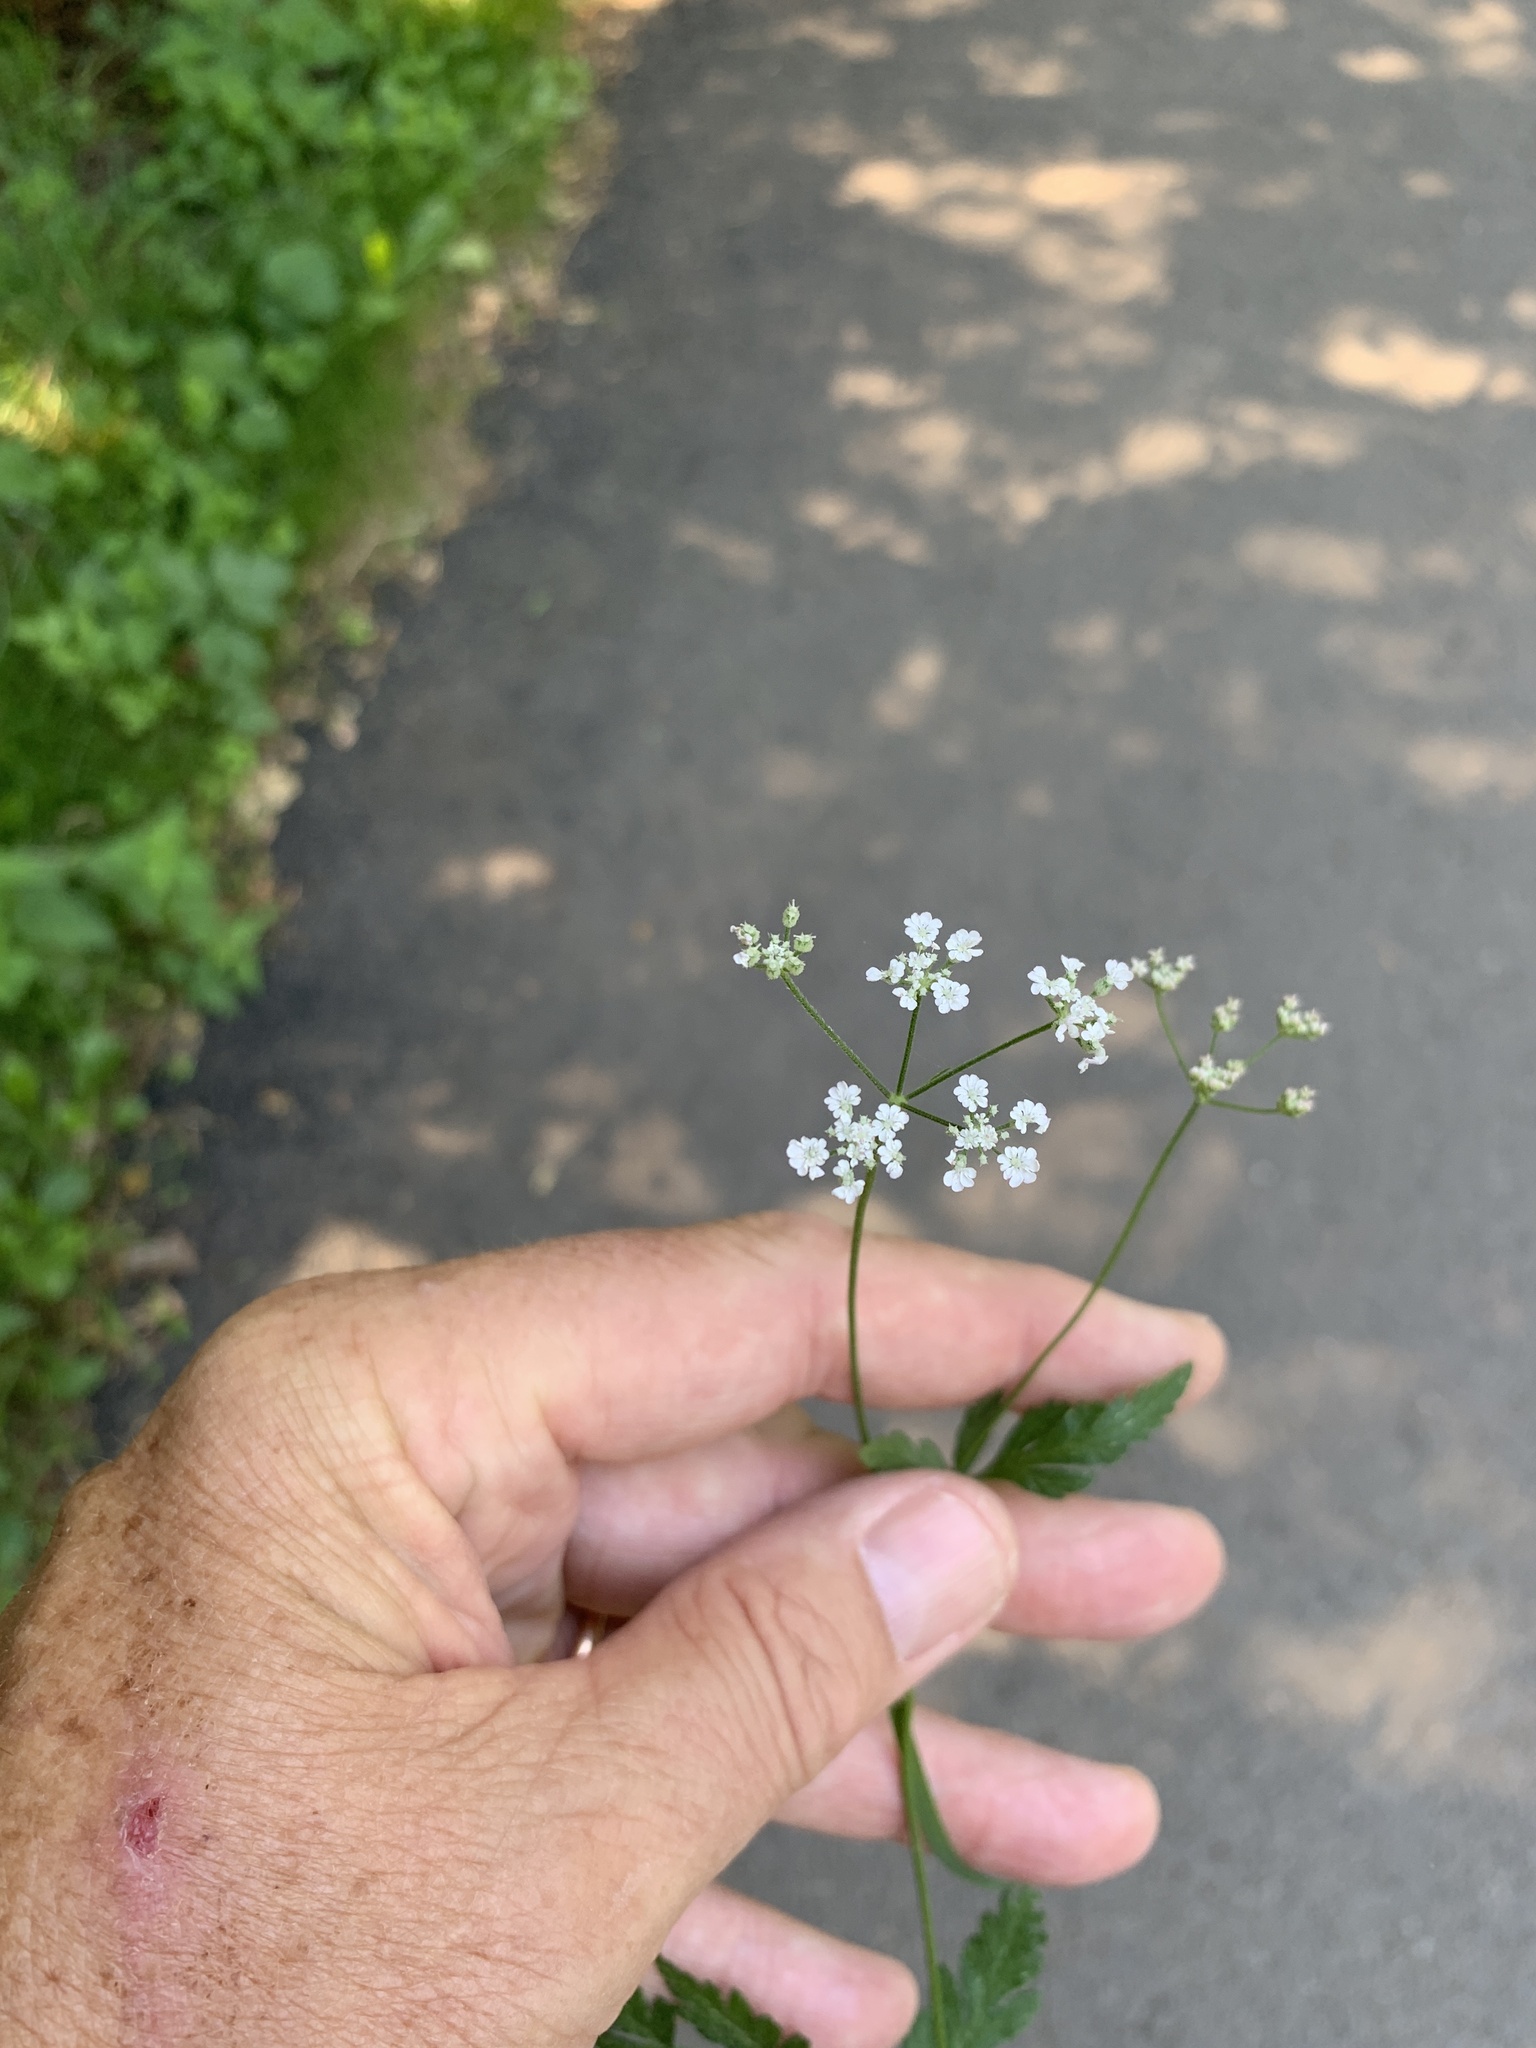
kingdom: Plantae
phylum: Tracheophyta
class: Magnoliopsida
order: Apiales
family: Apiaceae
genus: Torilis
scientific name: Torilis japonica
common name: Upright hedge-parsley
